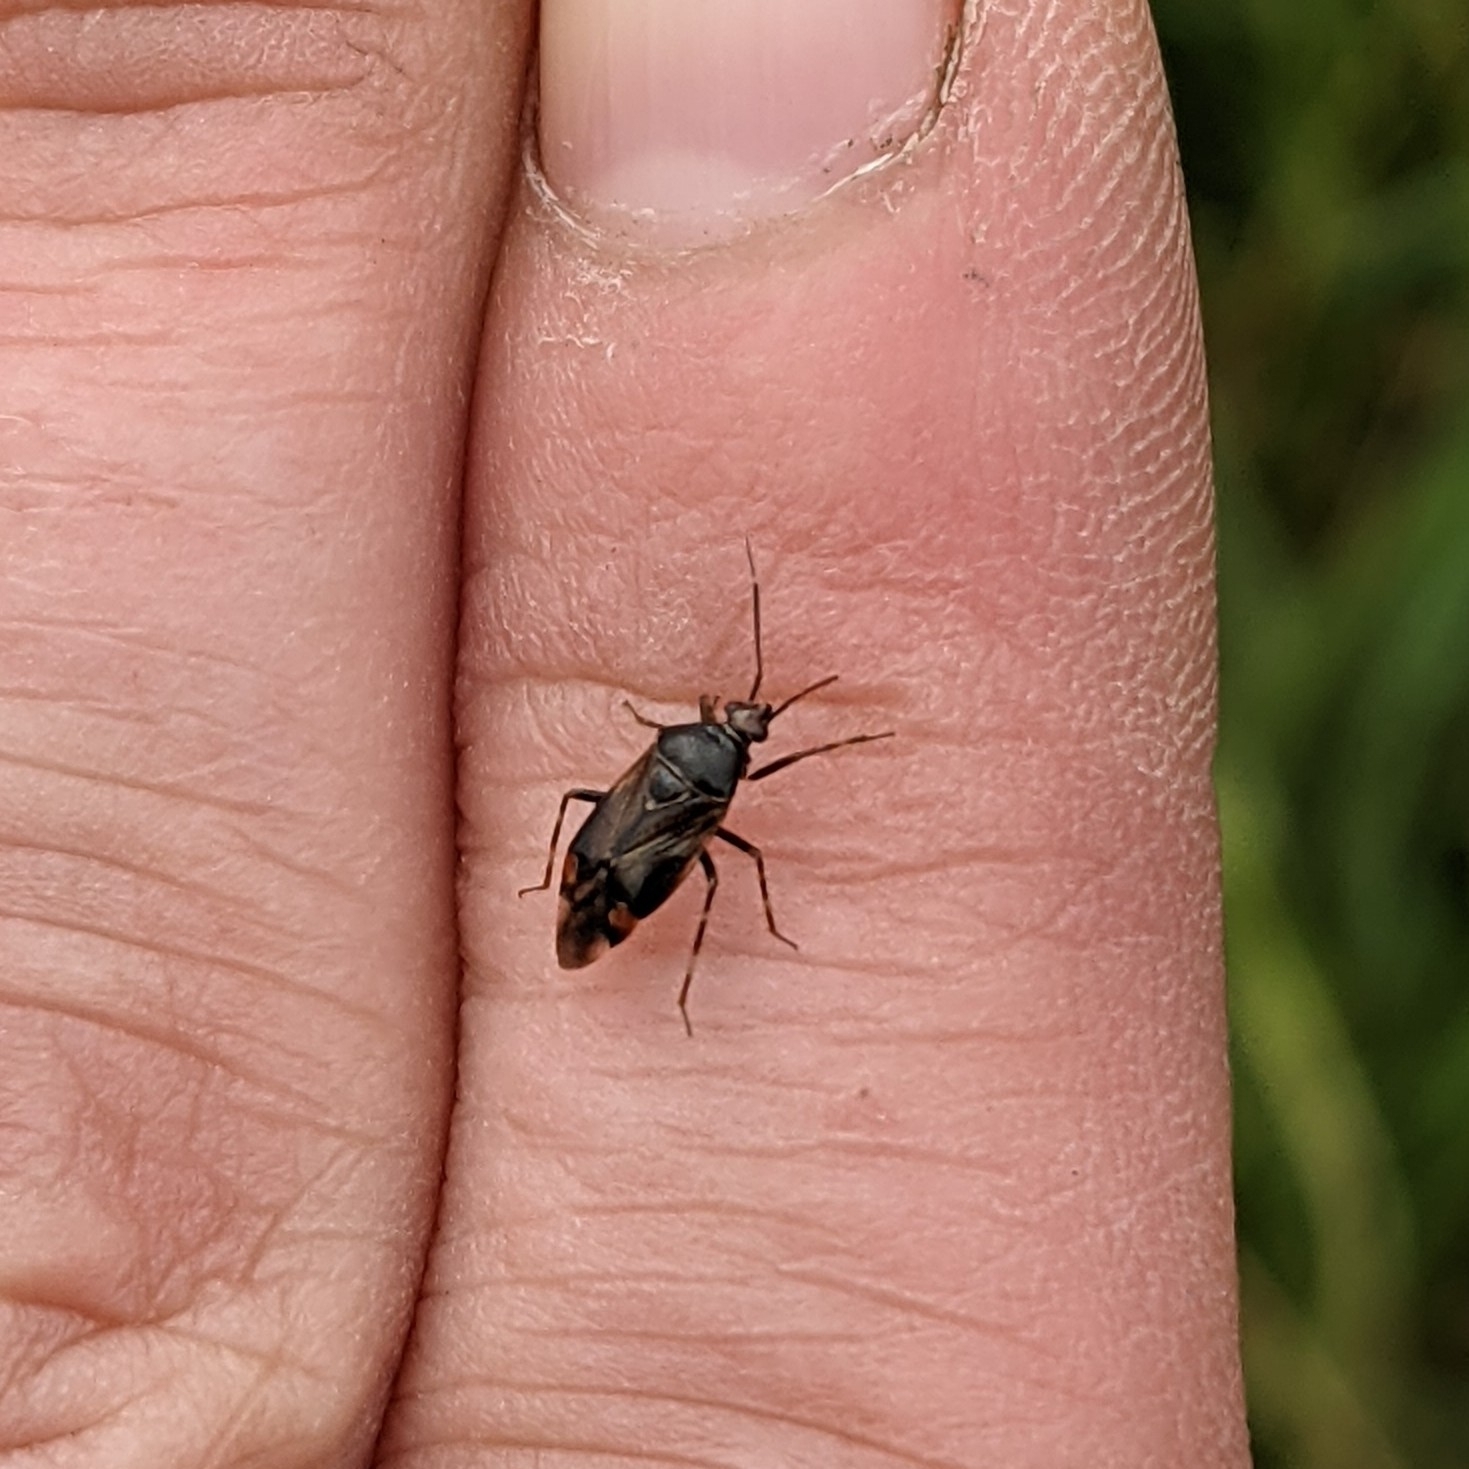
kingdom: Animalia
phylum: Arthropoda
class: Insecta
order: Hemiptera
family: Miridae
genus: Deraeocoris
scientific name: Deraeocoris flavilinea
